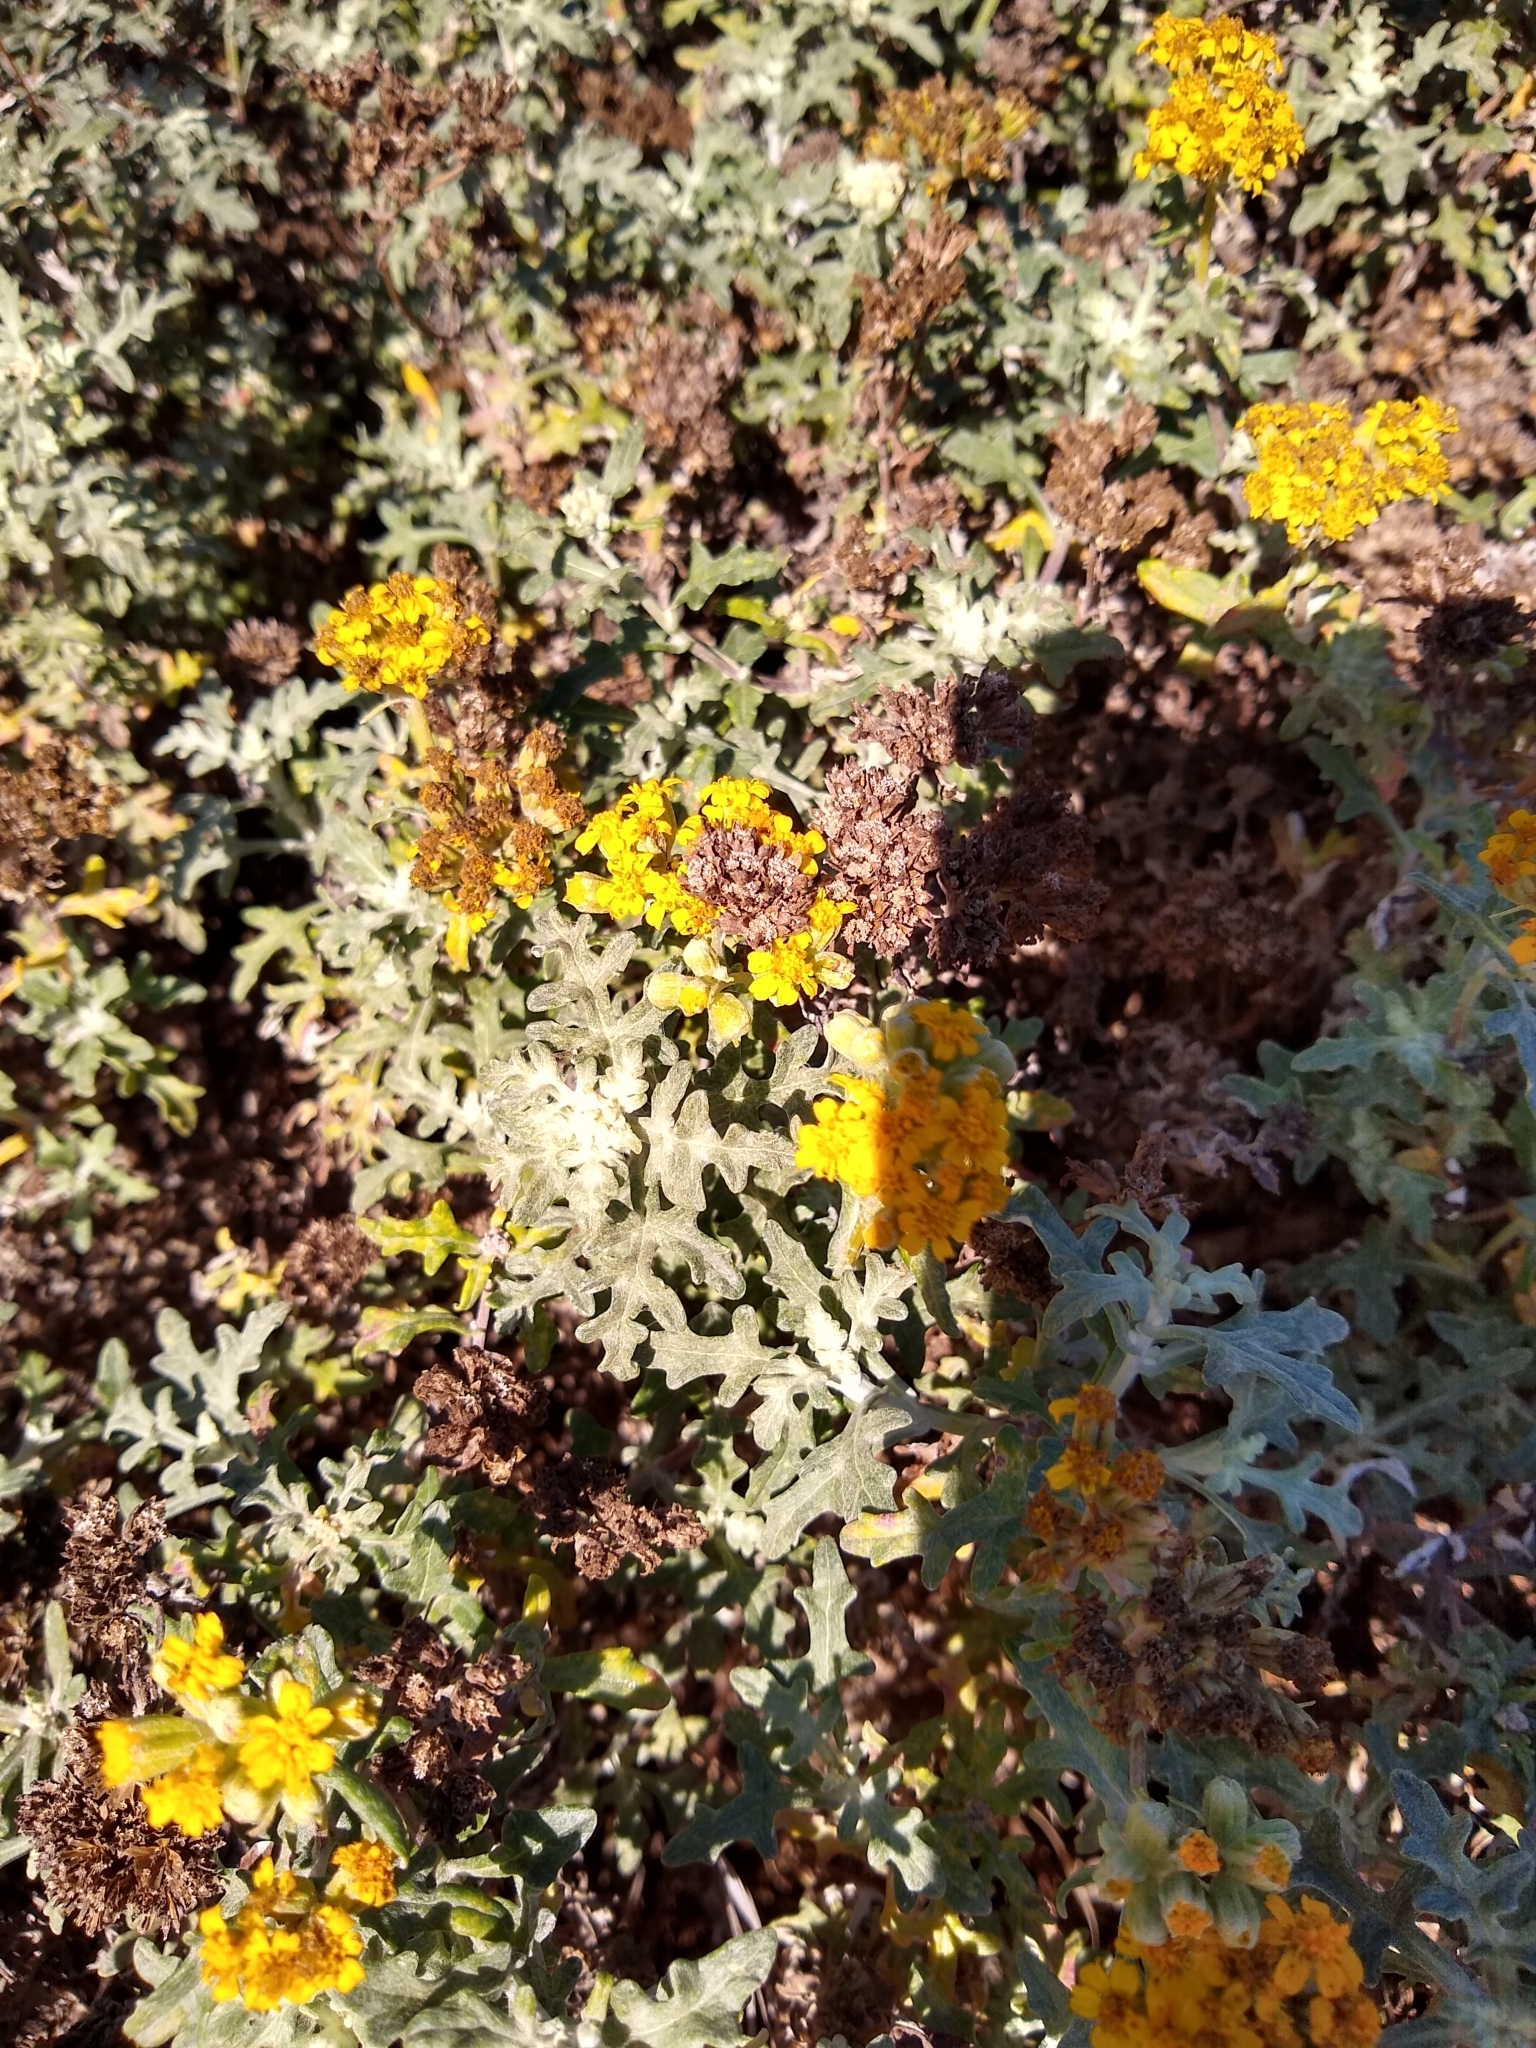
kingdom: Plantae
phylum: Tracheophyta
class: Magnoliopsida
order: Asterales
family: Asteraceae
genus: Eriophyllum
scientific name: Eriophyllum staechadifolium
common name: Lizardtail
